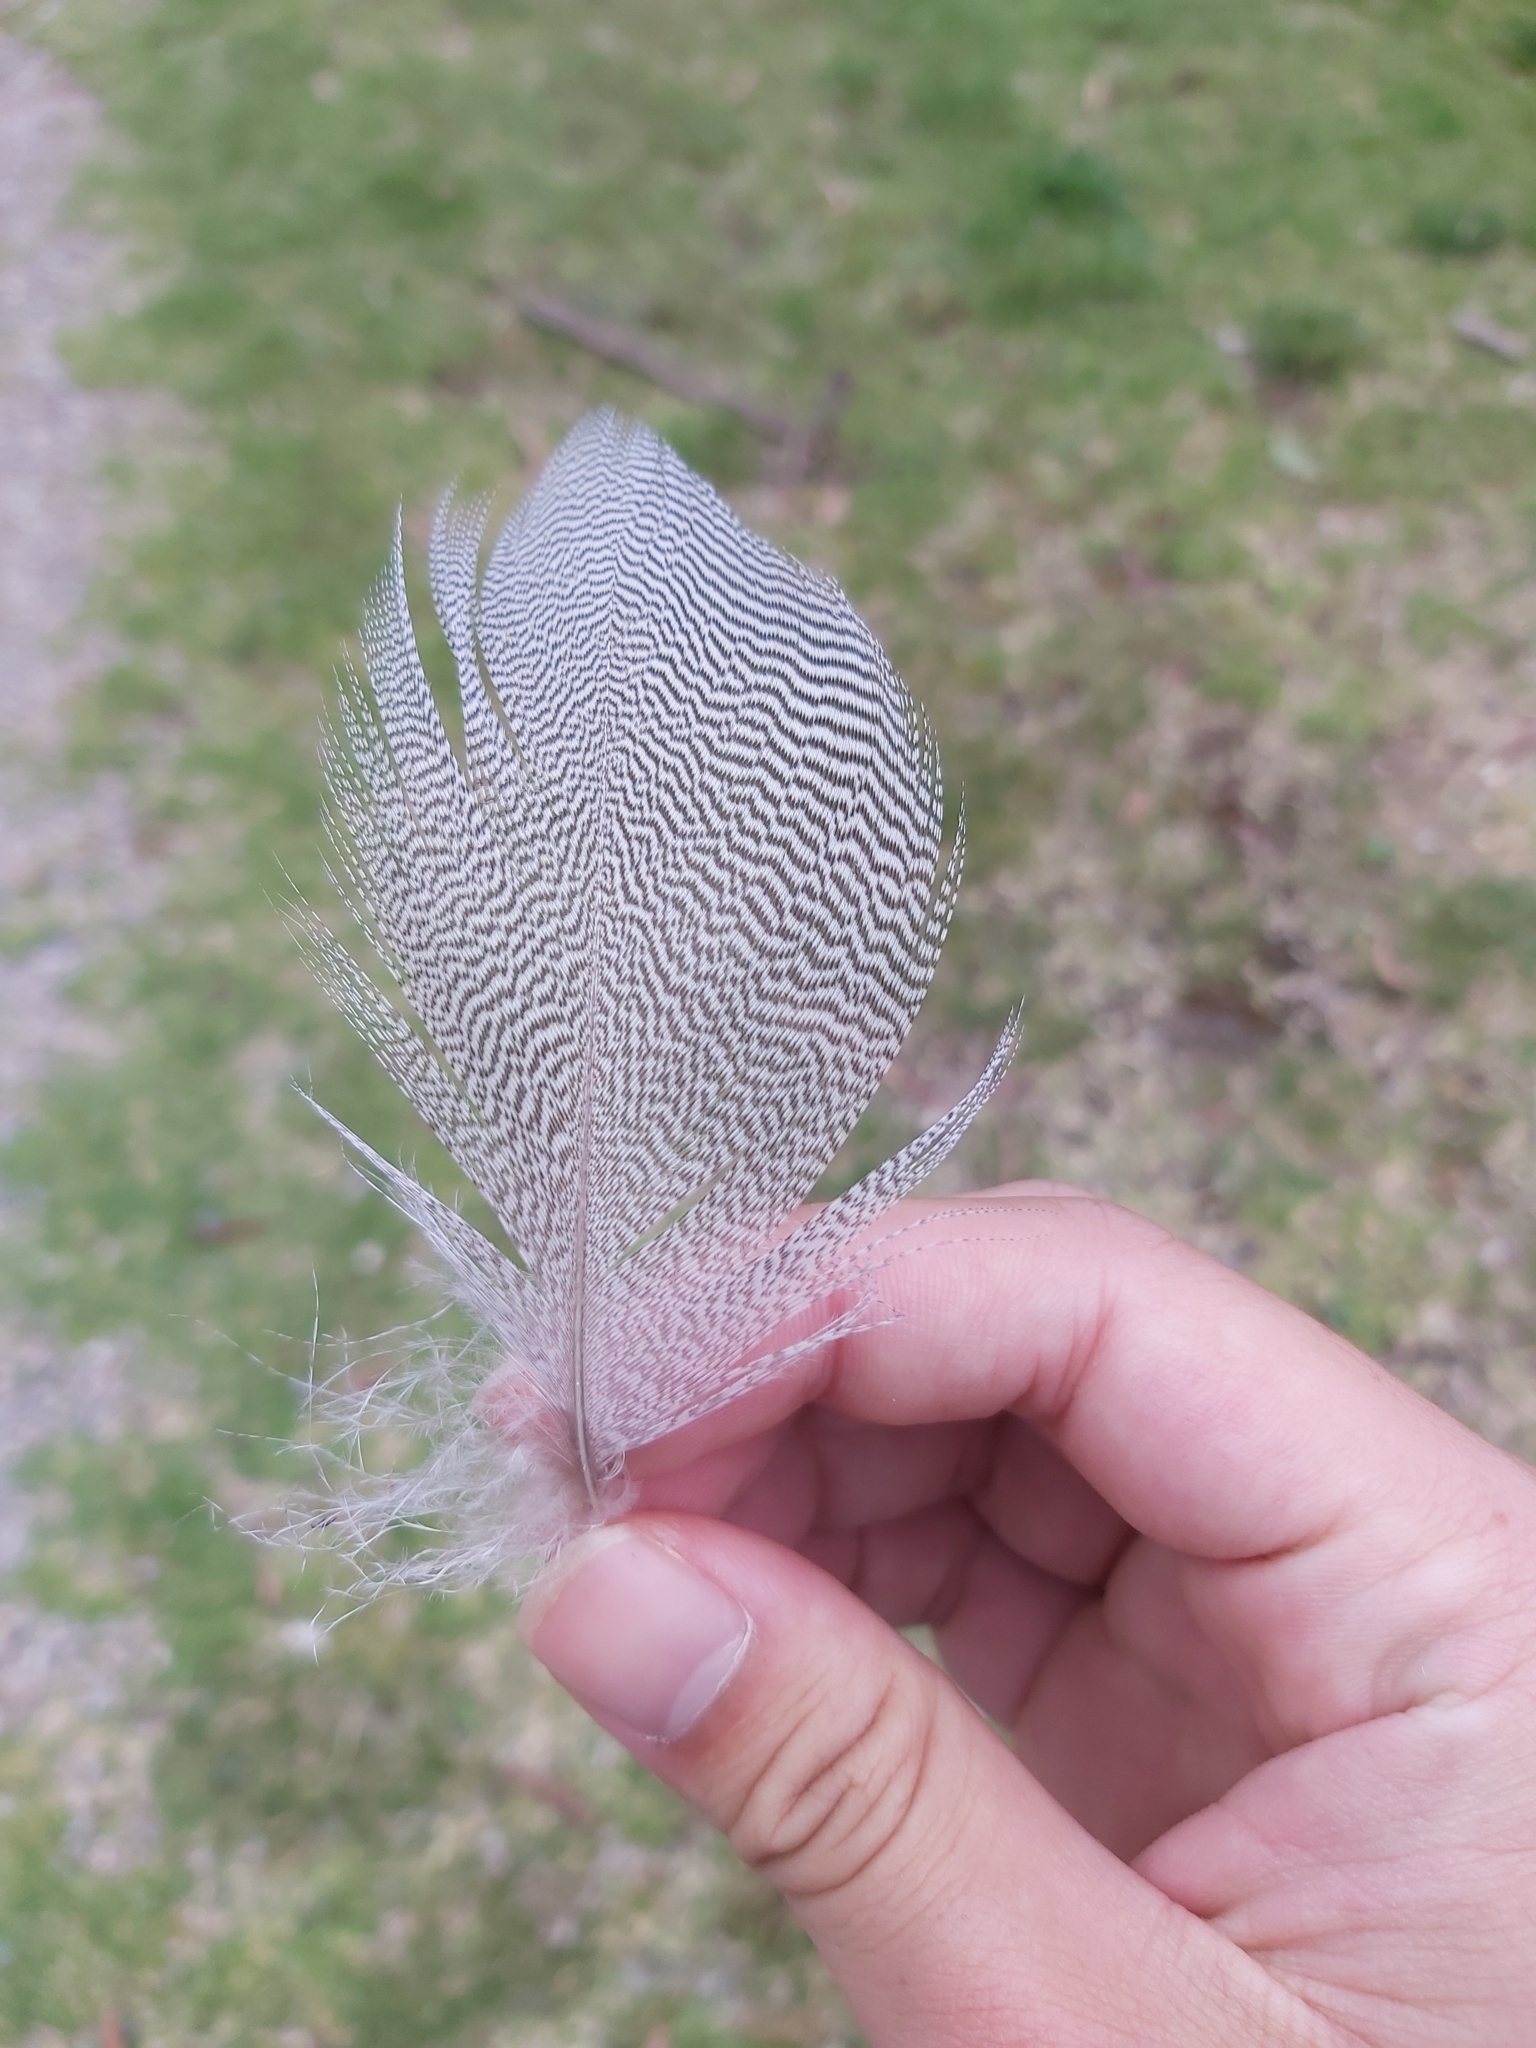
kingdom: Animalia
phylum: Chordata
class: Aves
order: Anseriformes
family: Anatidae
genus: Chenonetta
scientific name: Chenonetta jubata
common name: Maned duck
